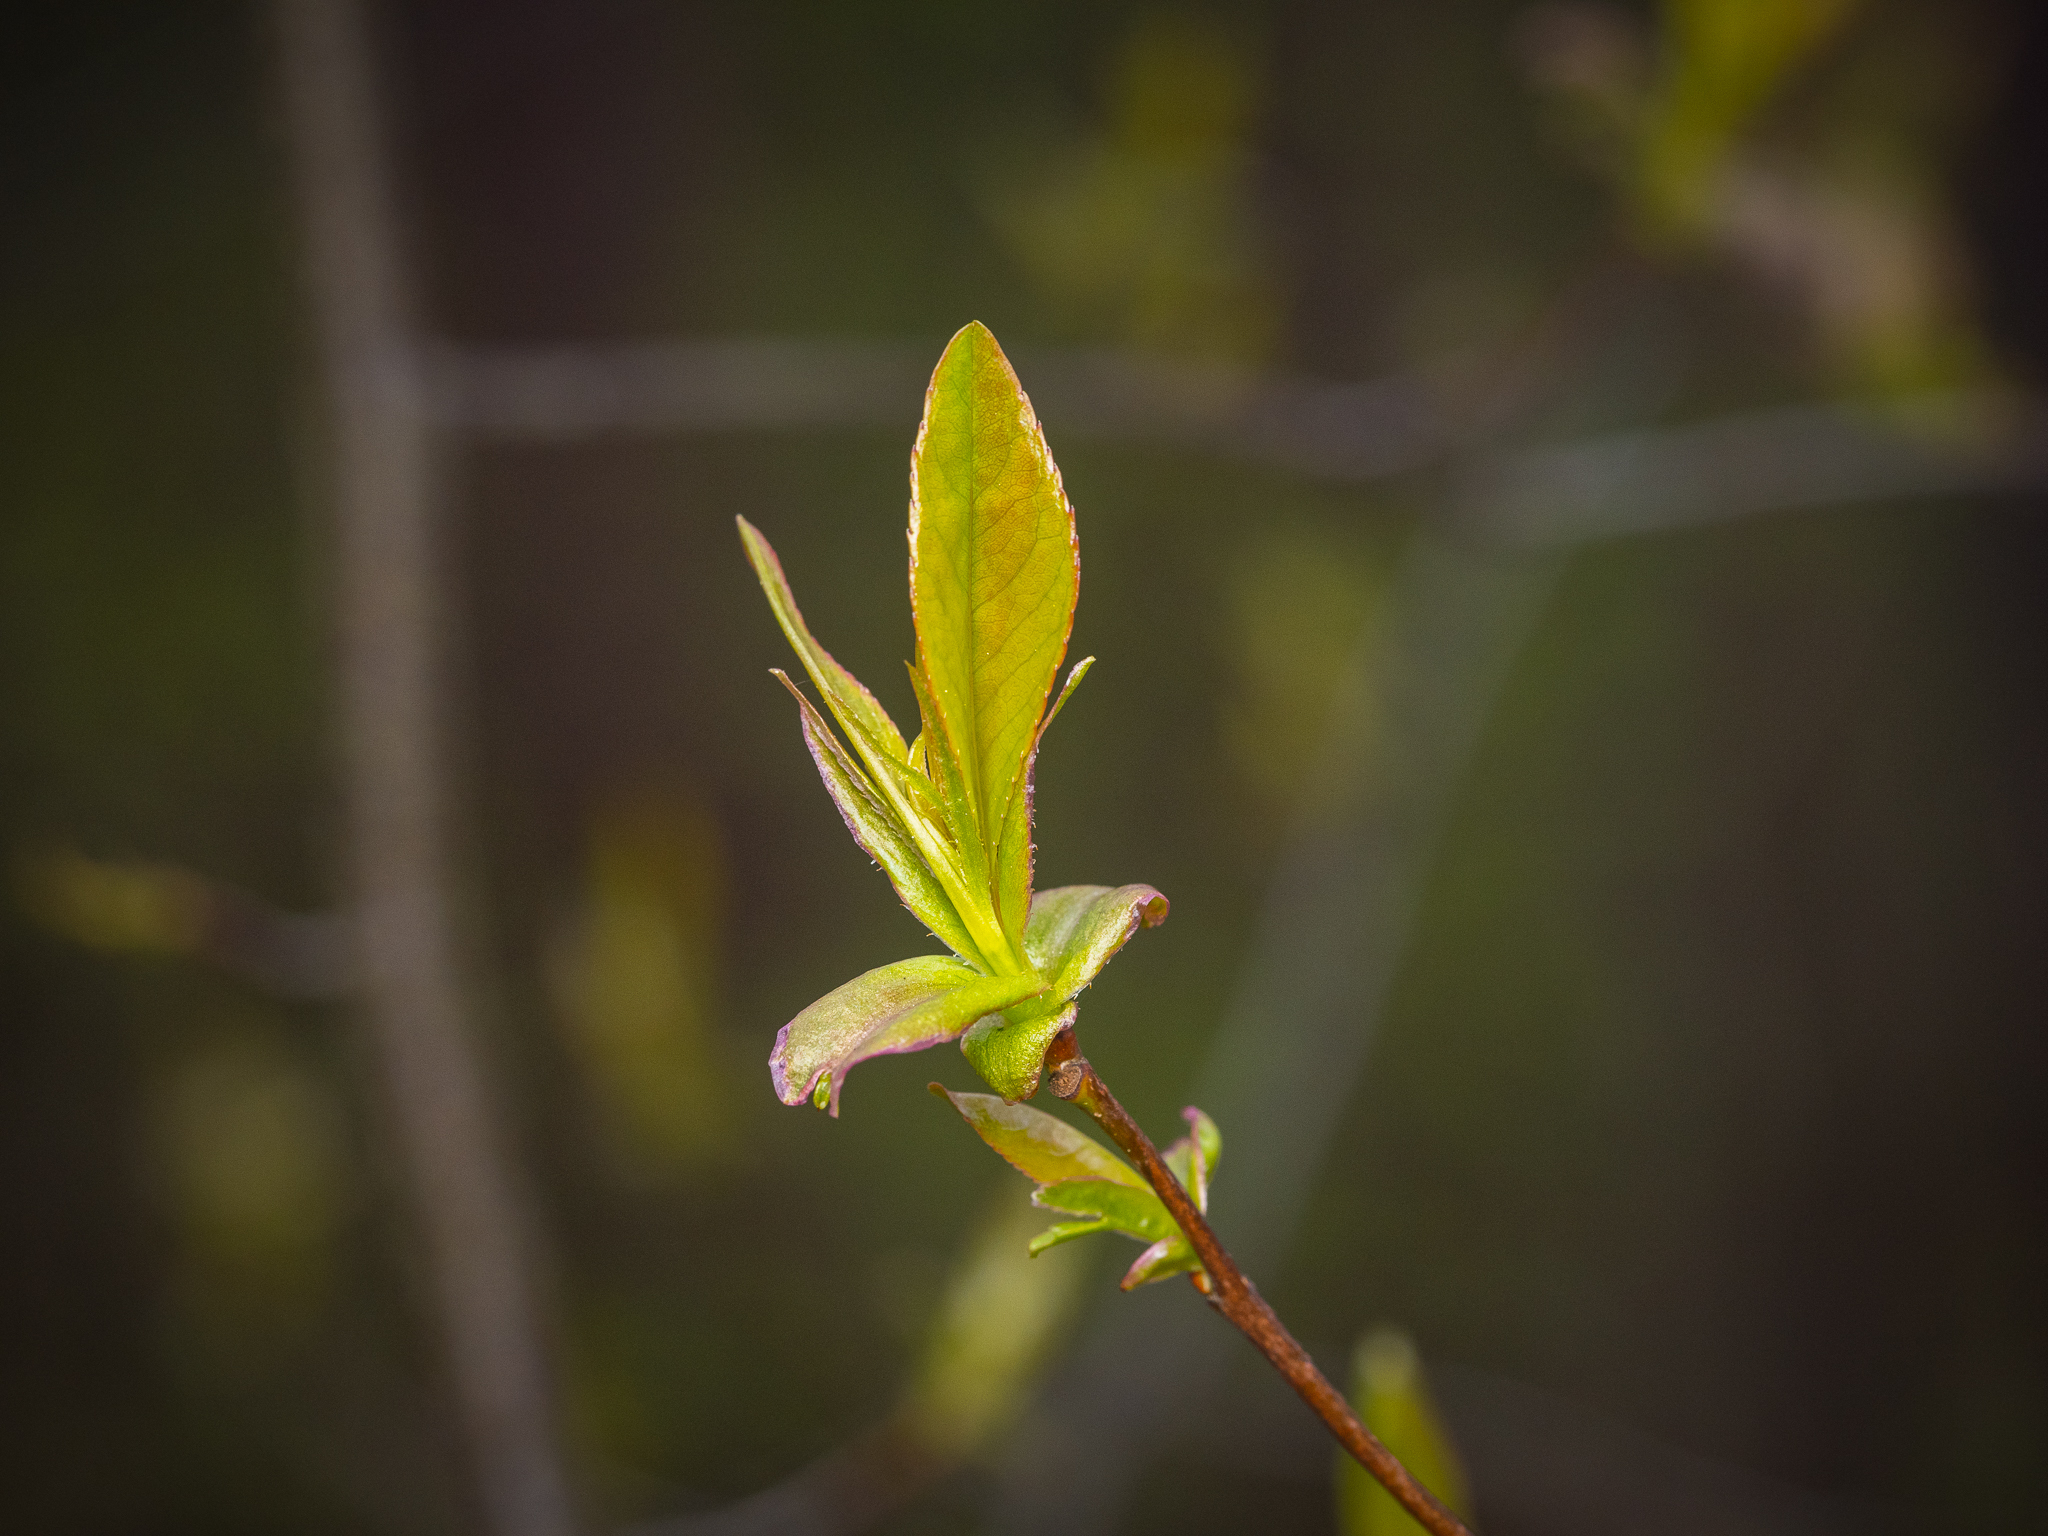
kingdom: Plantae
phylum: Tracheophyta
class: Magnoliopsida
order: Rosales
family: Rosaceae
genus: Prunus
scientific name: Prunus padus
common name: Bird cherry
